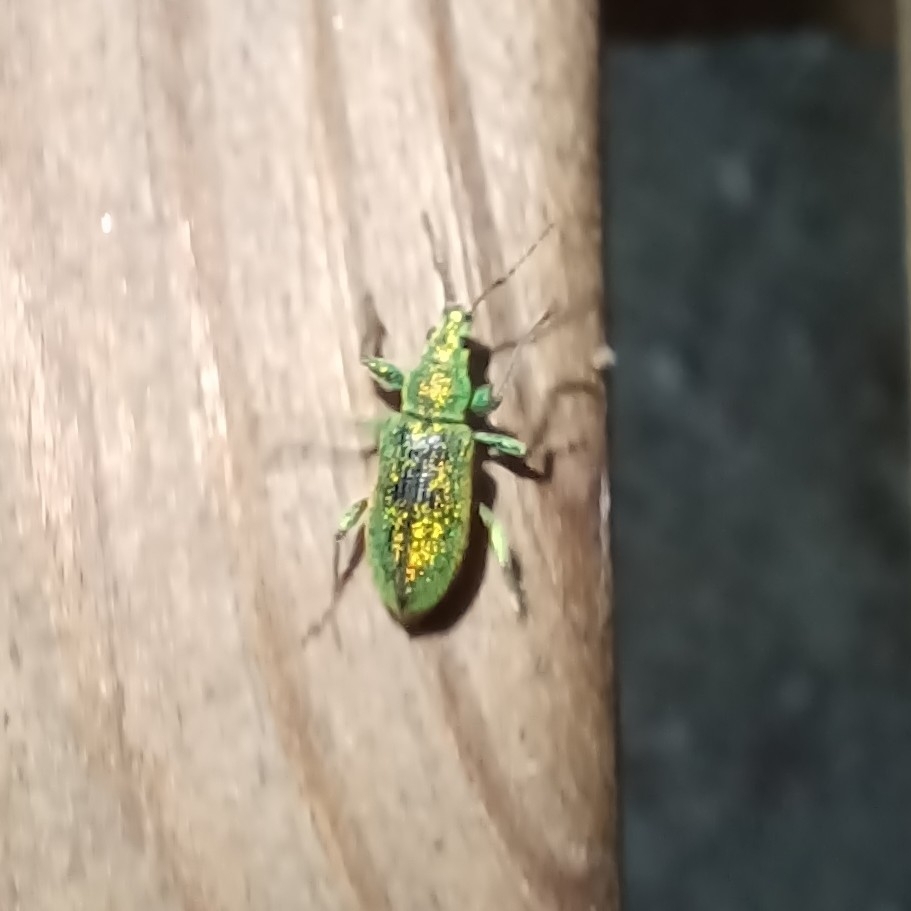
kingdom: Animalia
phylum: Arthropoda
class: Insecta
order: Coleoptera
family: Curculionidae
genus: Phyllobius
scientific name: Phyllobius arborator
